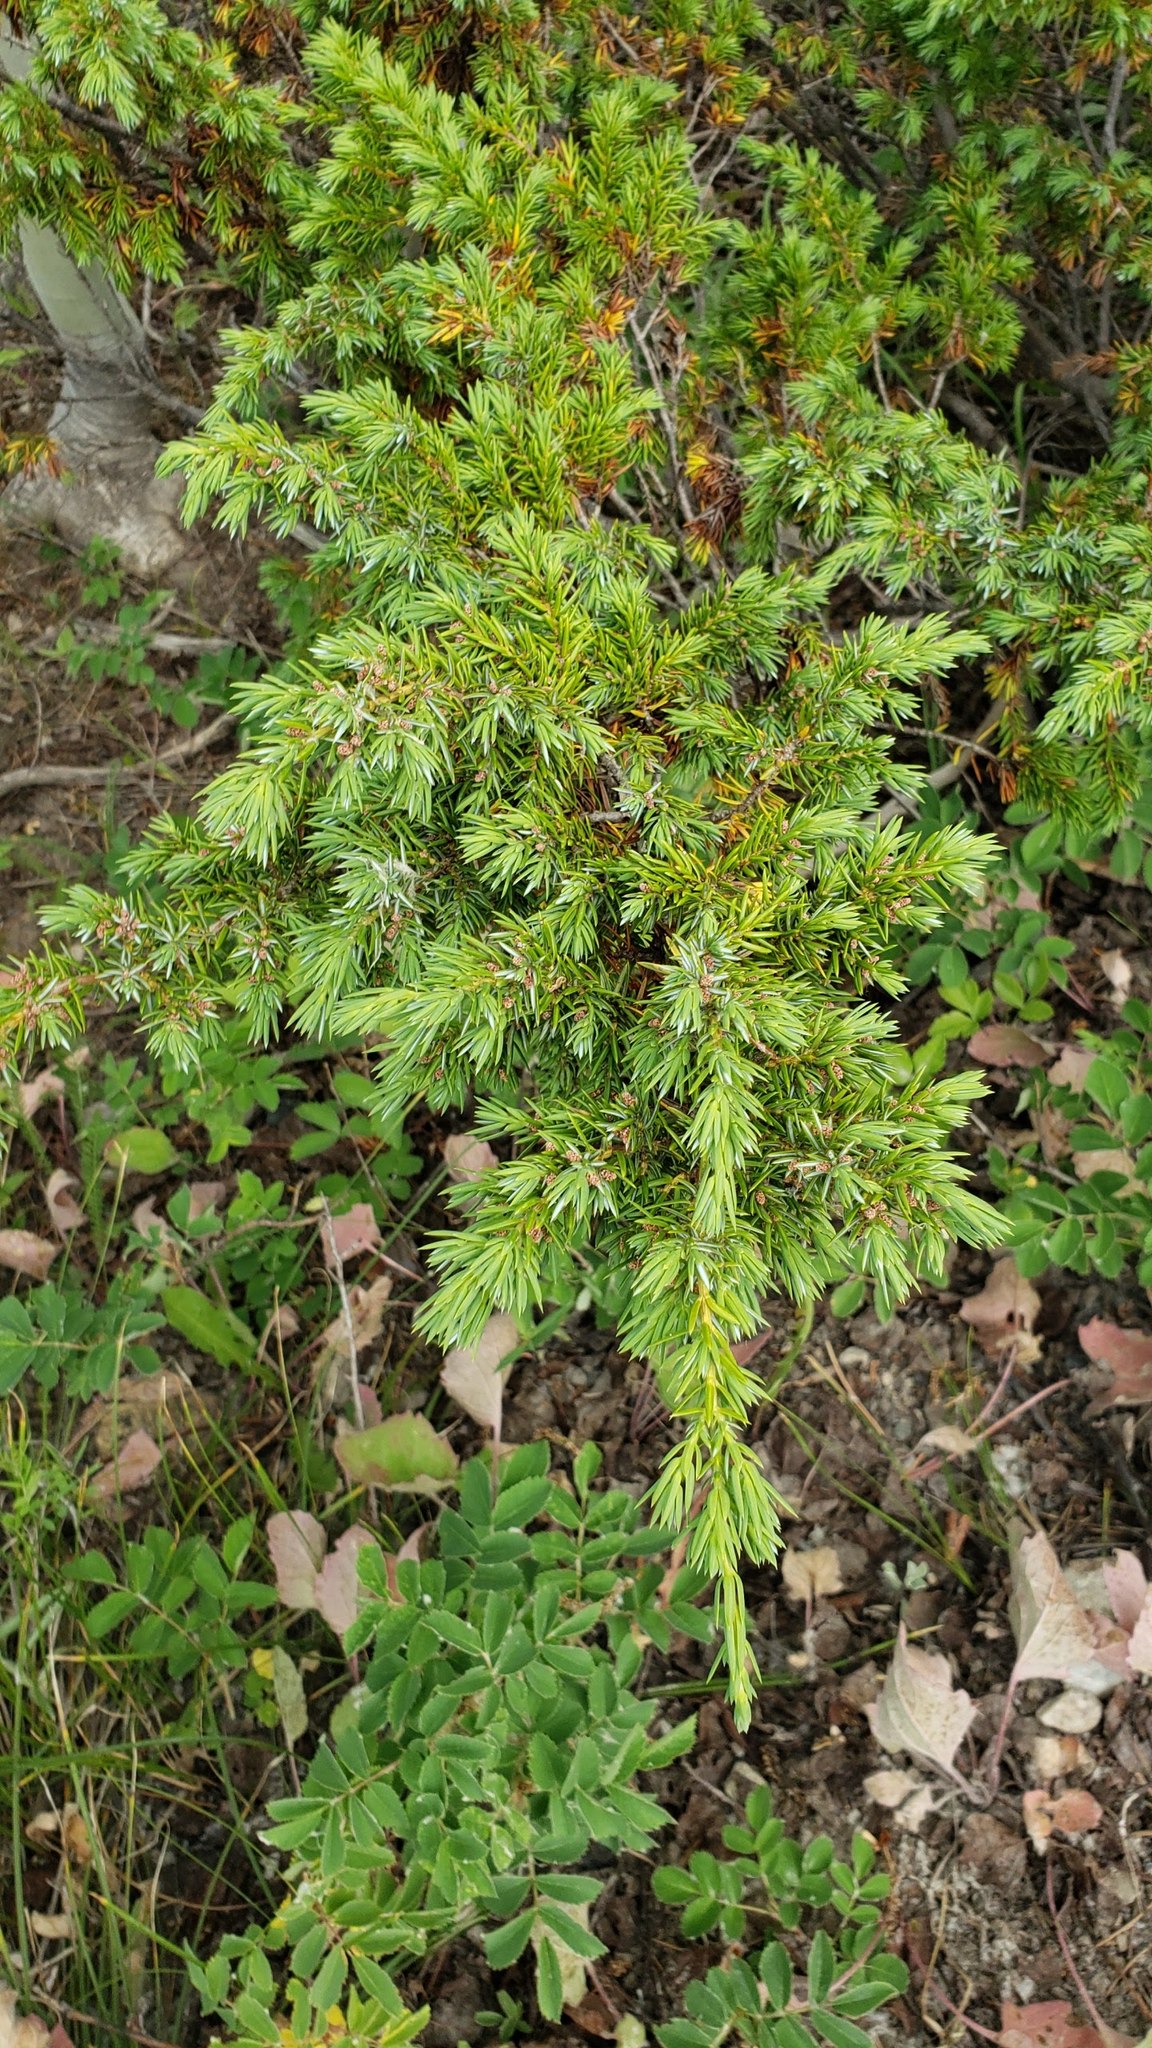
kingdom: Plantae
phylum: Tracheophyta
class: Pinopsida
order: Pinales
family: Cupressaceae
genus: Juniperus
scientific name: Juniperus communis
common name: Common juniper
